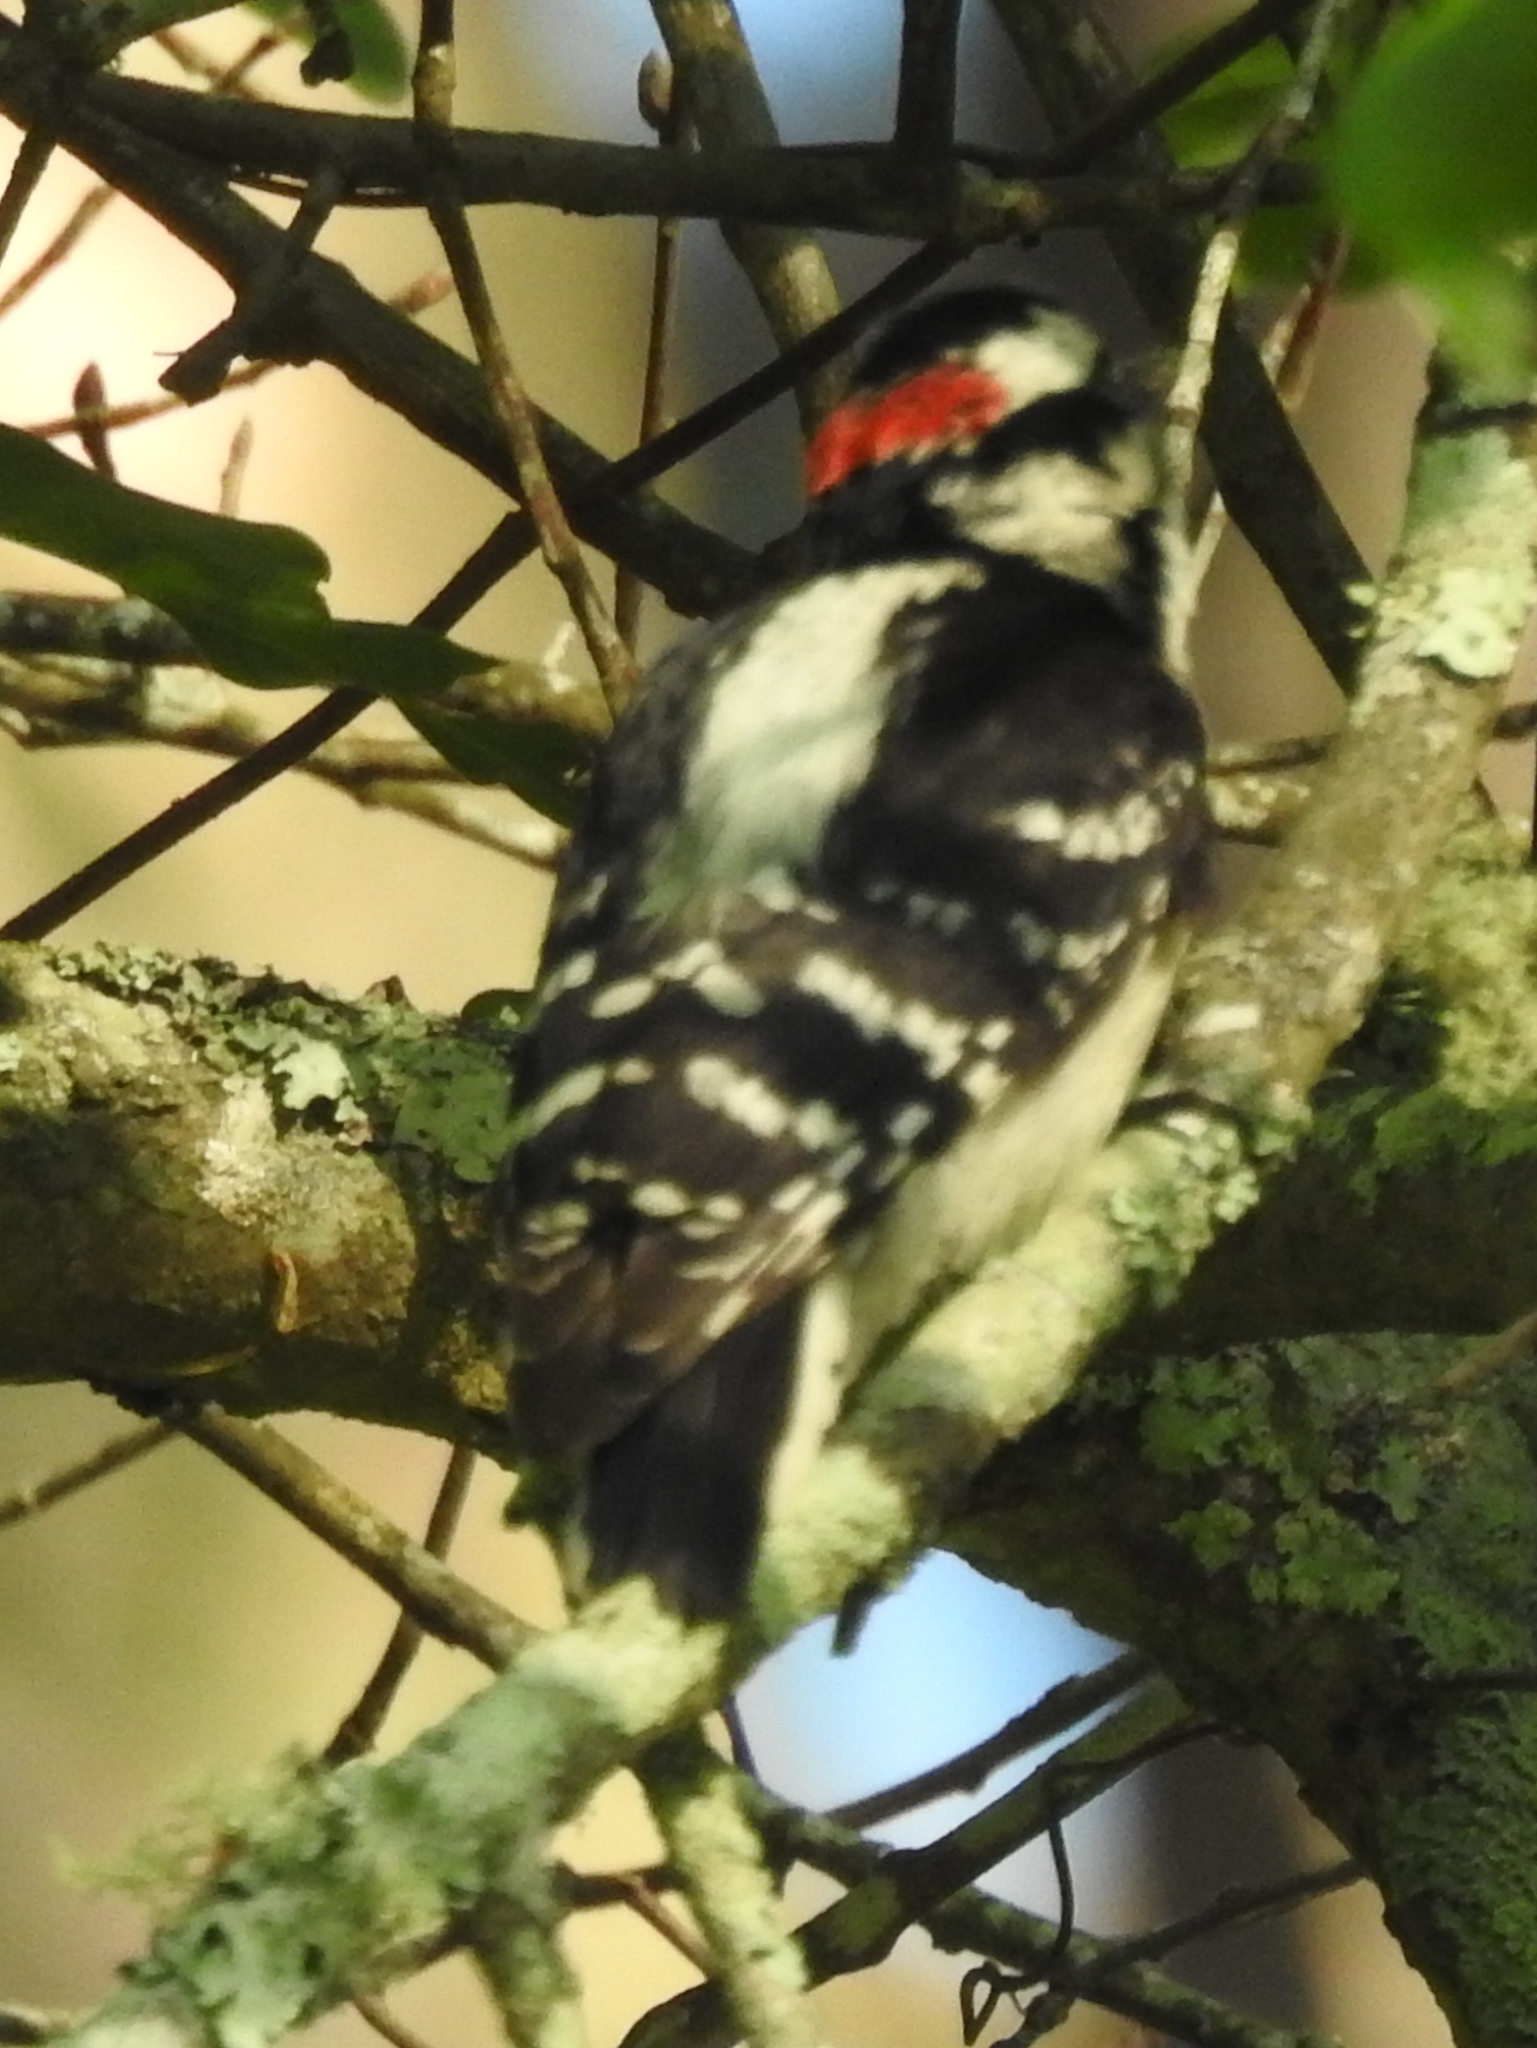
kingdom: Animalia
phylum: Chordata
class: Aves
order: Piciformes
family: Picidae
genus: Dryobates
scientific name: Dryobates pubescens
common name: Downy woodpecker
